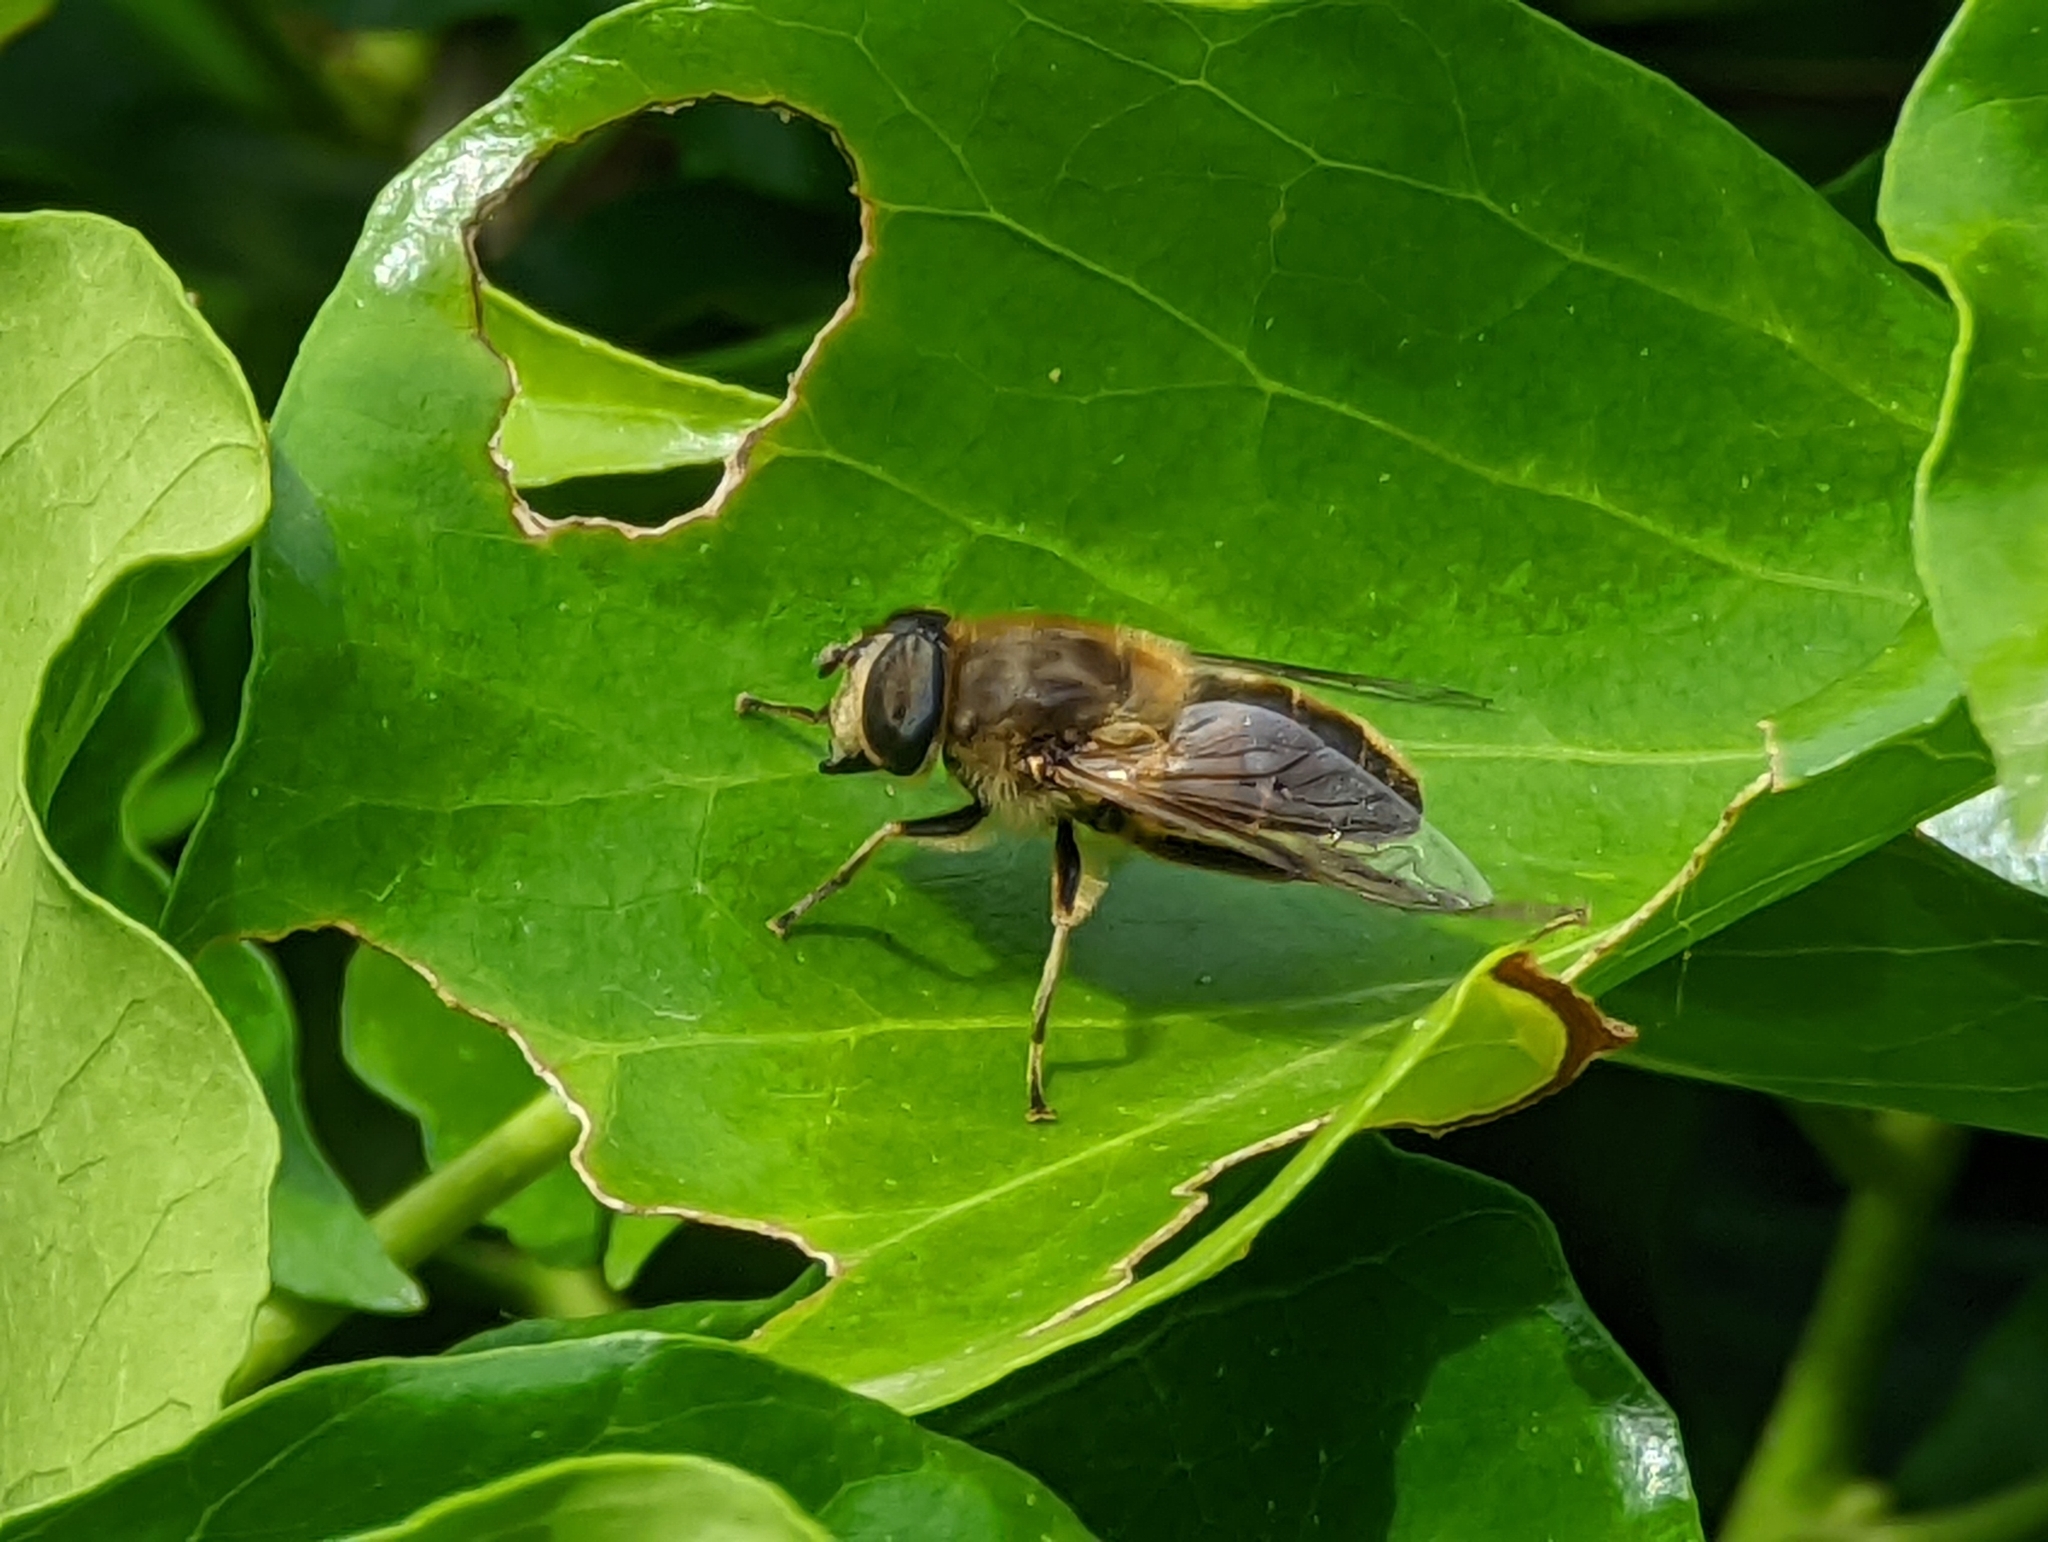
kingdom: Animalia
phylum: Arthropoda
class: Insecta
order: Diptera
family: Syrphidae
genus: Eristalis
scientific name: Eristalis tenax
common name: Drone fly
